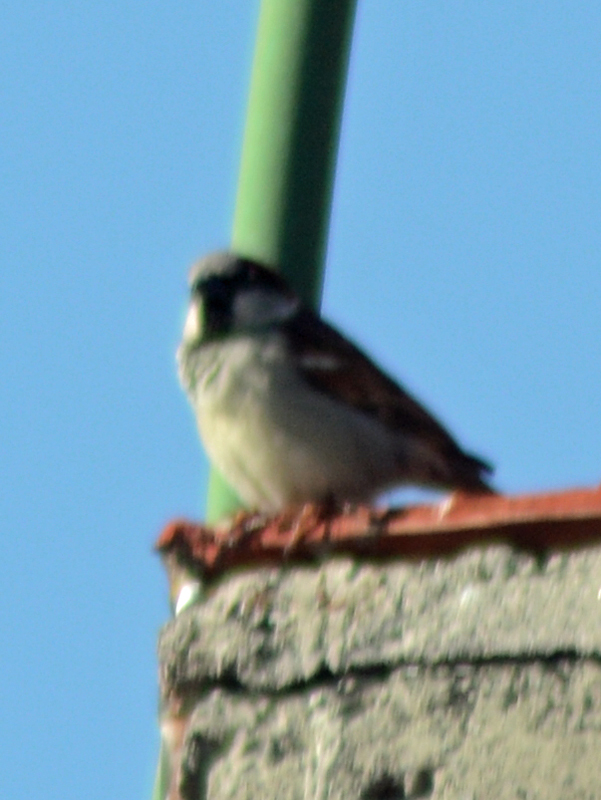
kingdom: Animalia
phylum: Chordata
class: Aves
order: Passeriformes
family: Passeridae
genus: Passer
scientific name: Passer domesticus
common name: House sparrow
